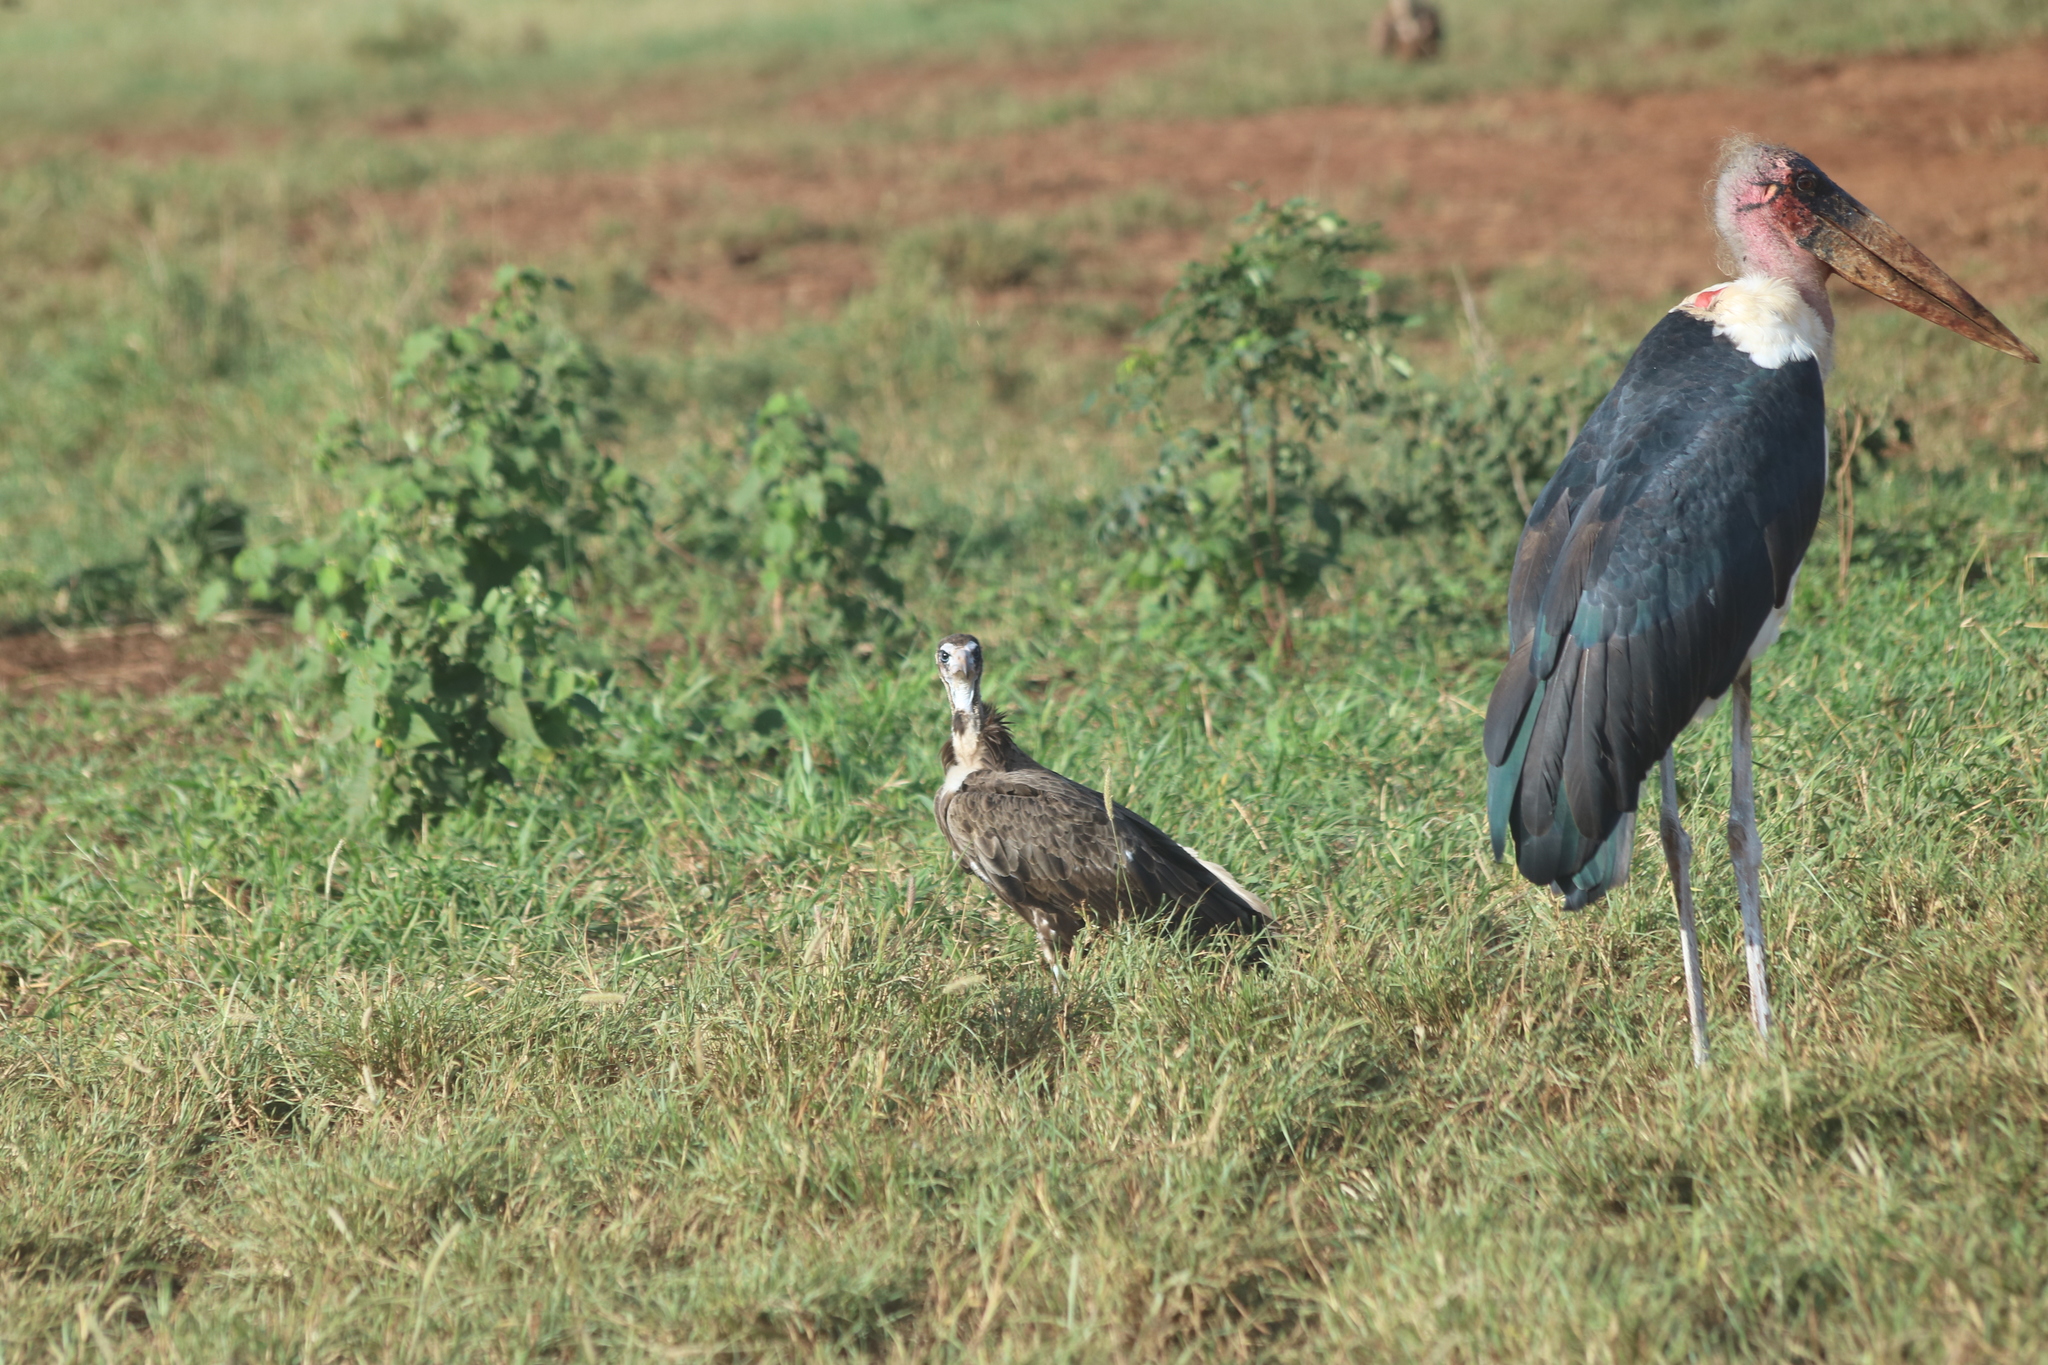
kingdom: Animalia
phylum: Chordata
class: Aves
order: Accipitriformes
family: Accipitridae
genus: Necrosyrtes
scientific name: Necrosyrtes monachus
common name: Hooded vulture
